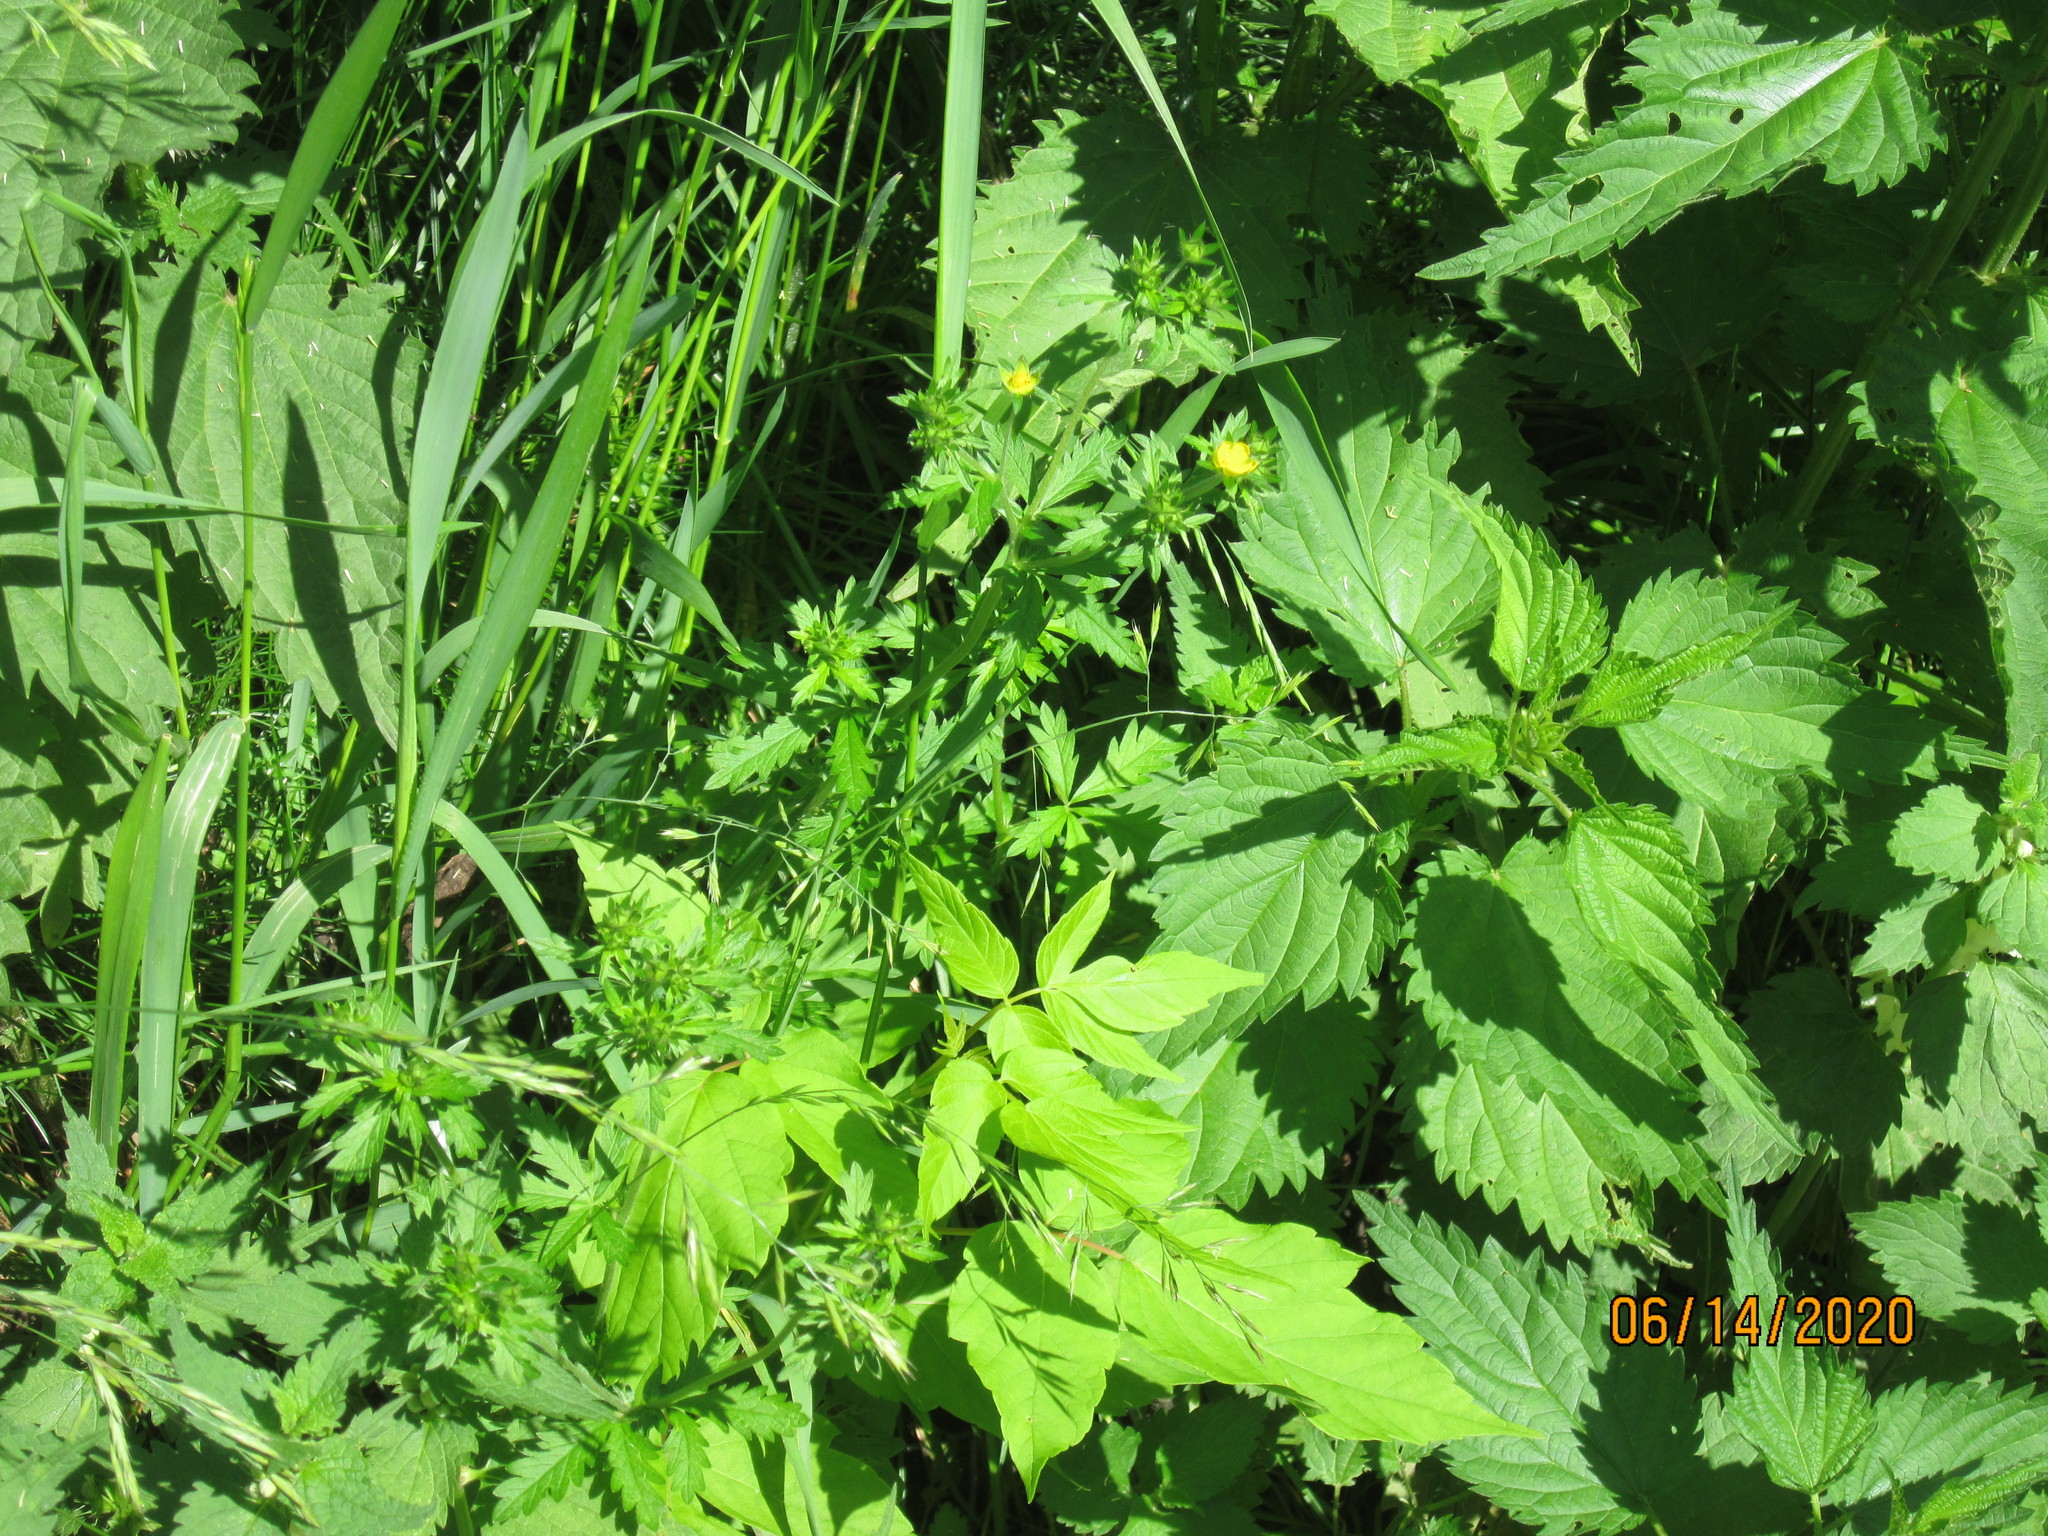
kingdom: Plantae
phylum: Tracheophyta
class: Magnoliopsida
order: Rosales
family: Rosaceae
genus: Potentilla
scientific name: Potentilla intermedia
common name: Downy cinquefoil
